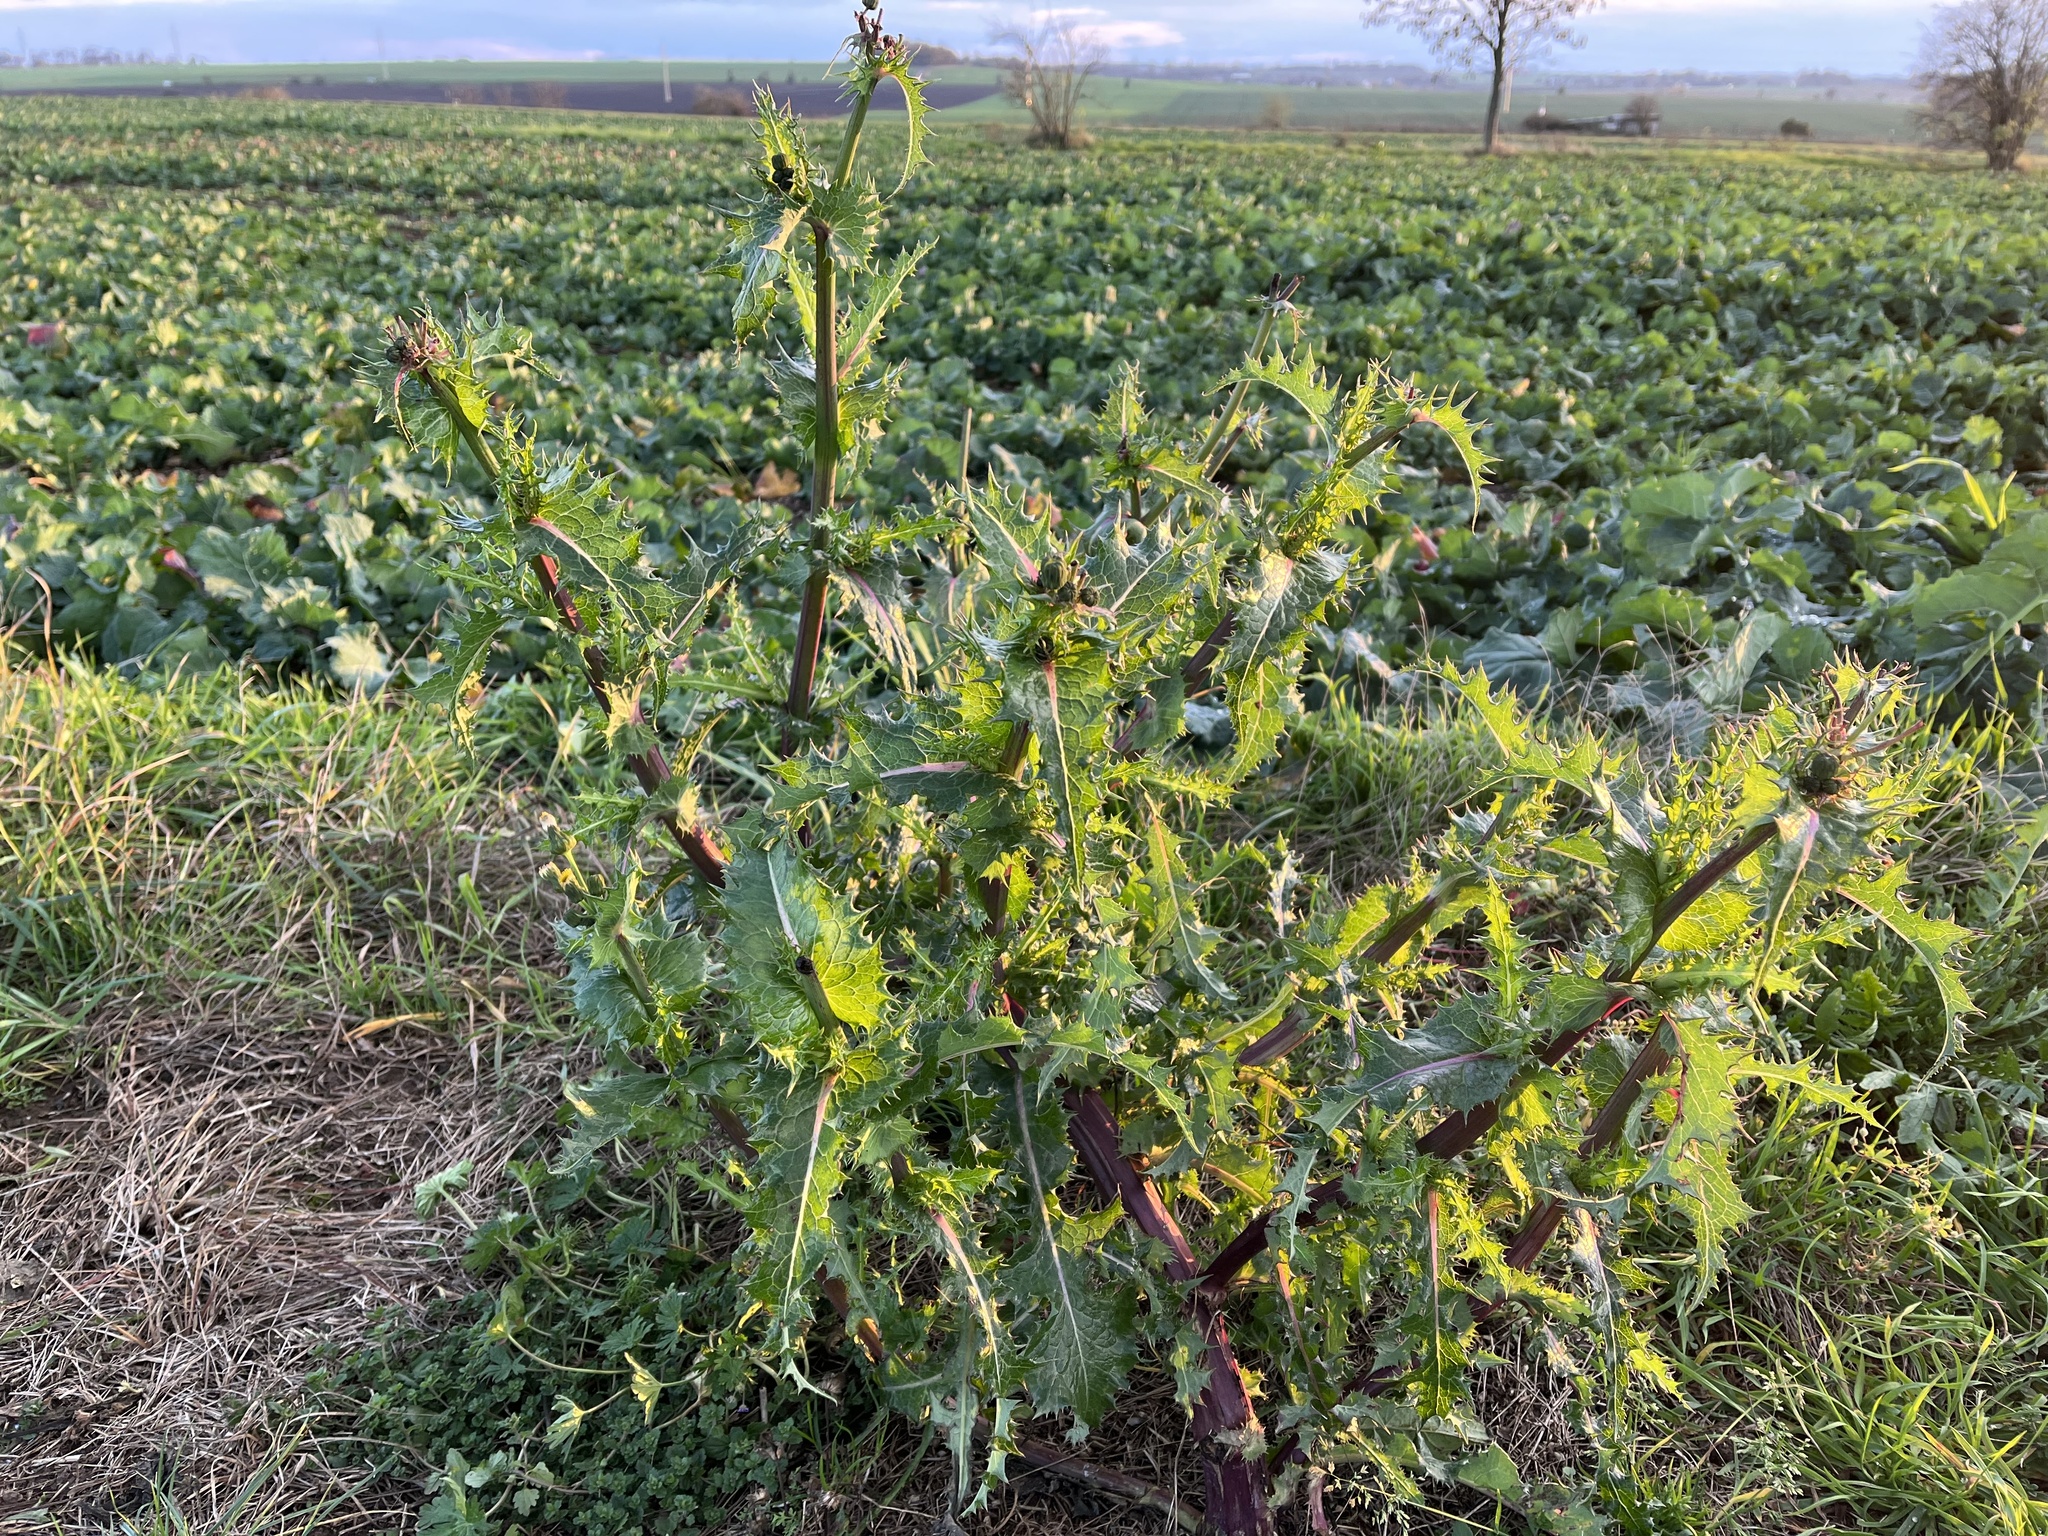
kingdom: Plantae
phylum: Tracheophyta
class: Magnoliopsida
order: Asterales
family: Asteraceae
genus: Sonchus
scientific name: Sonchus asper
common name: Prickly sow-thistle
